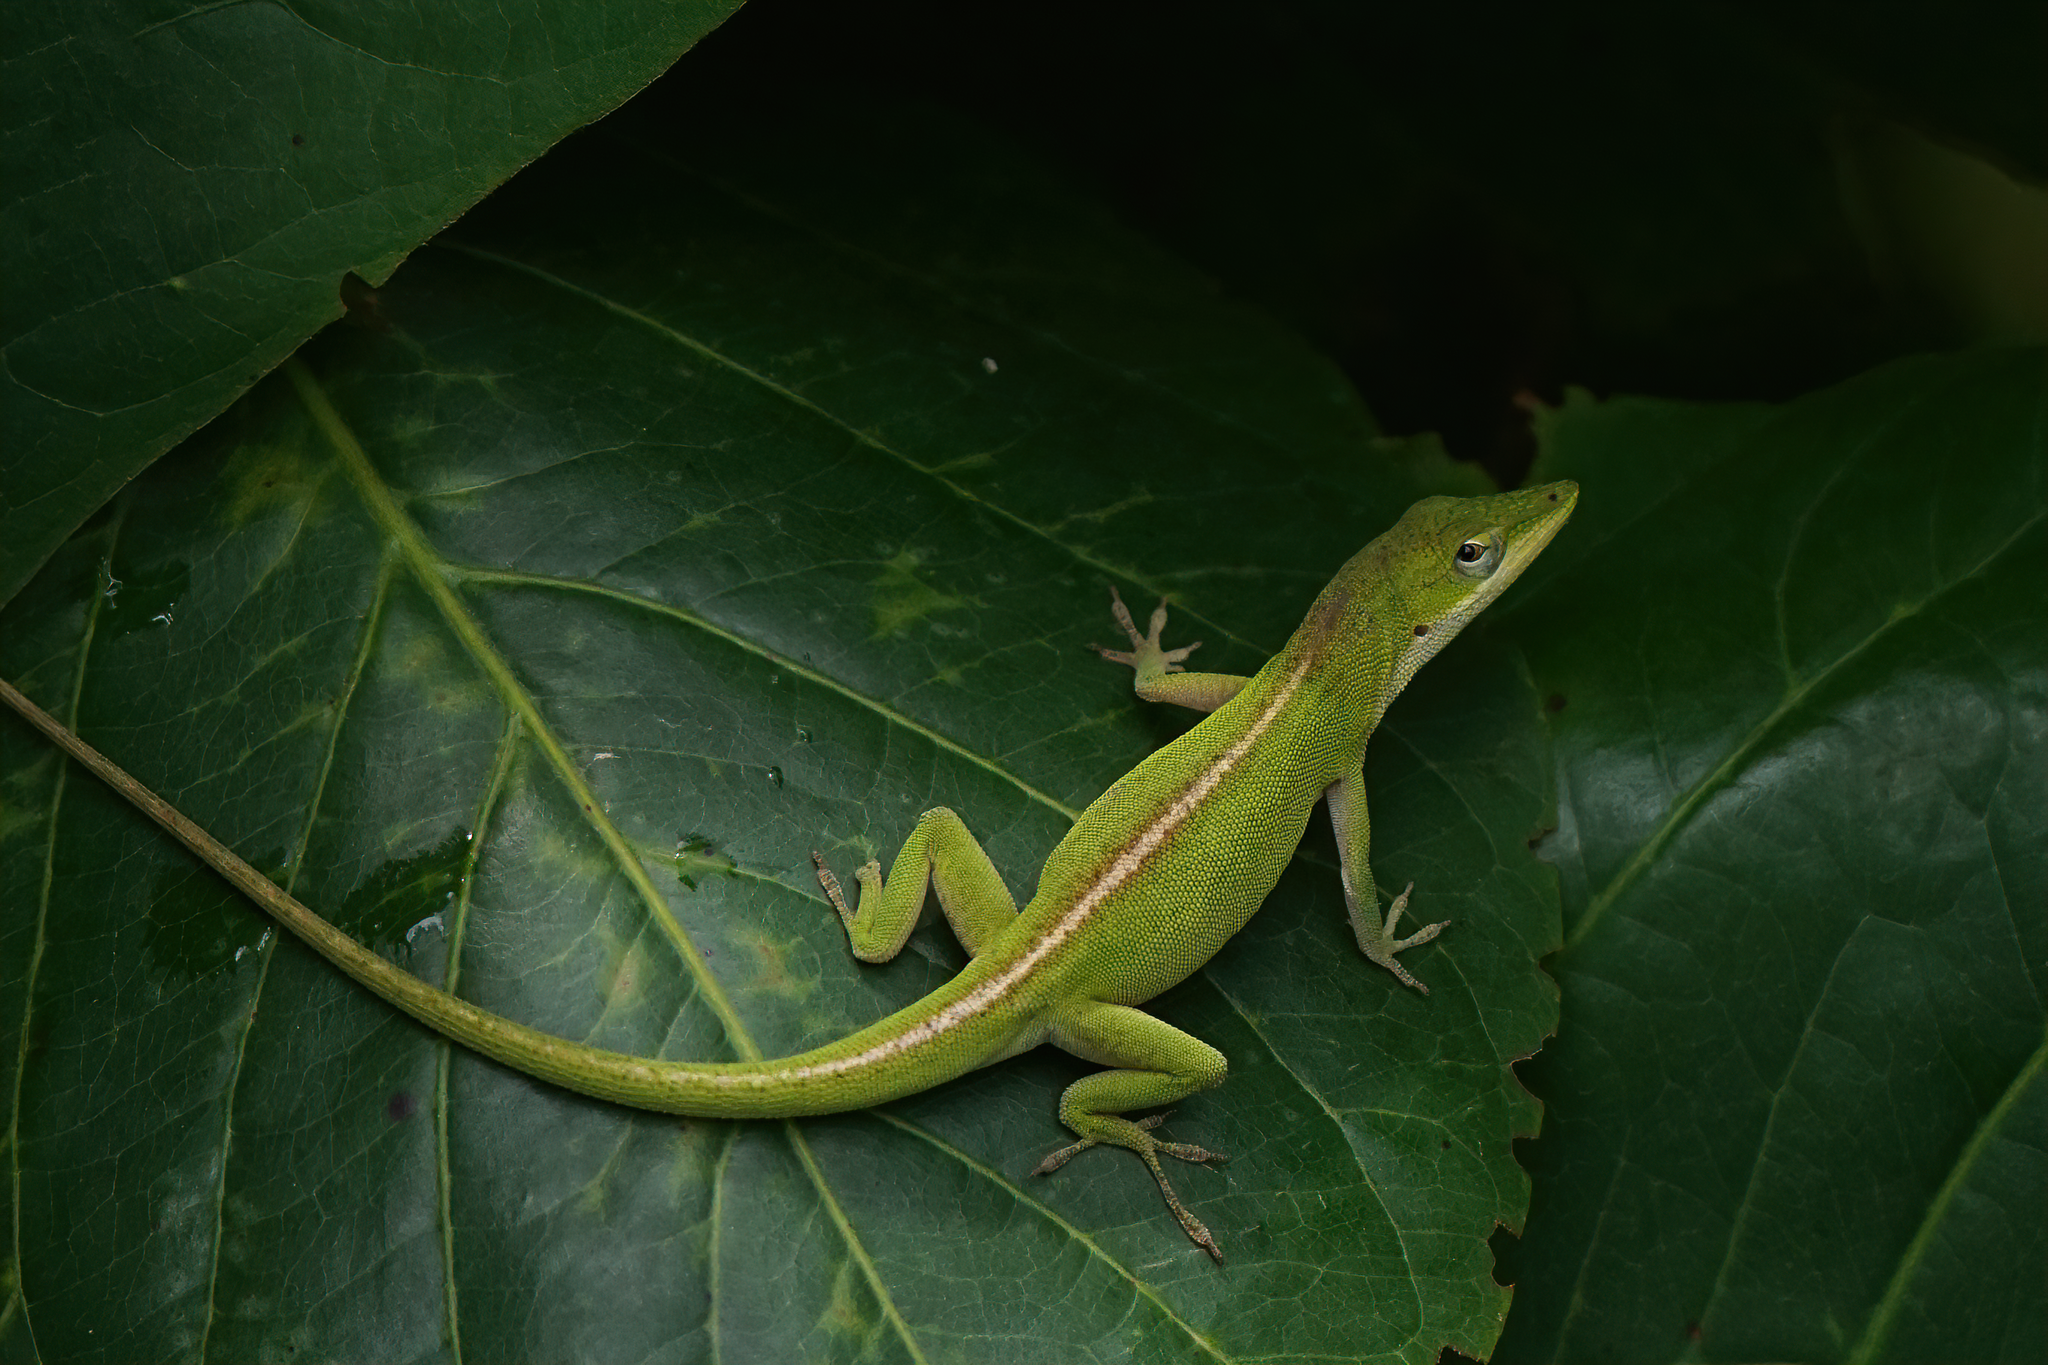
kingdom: Animalia
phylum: Chordata
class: Squamata
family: Dactyloidae
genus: Anolis
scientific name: Anolis carolinensis
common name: Green anole
